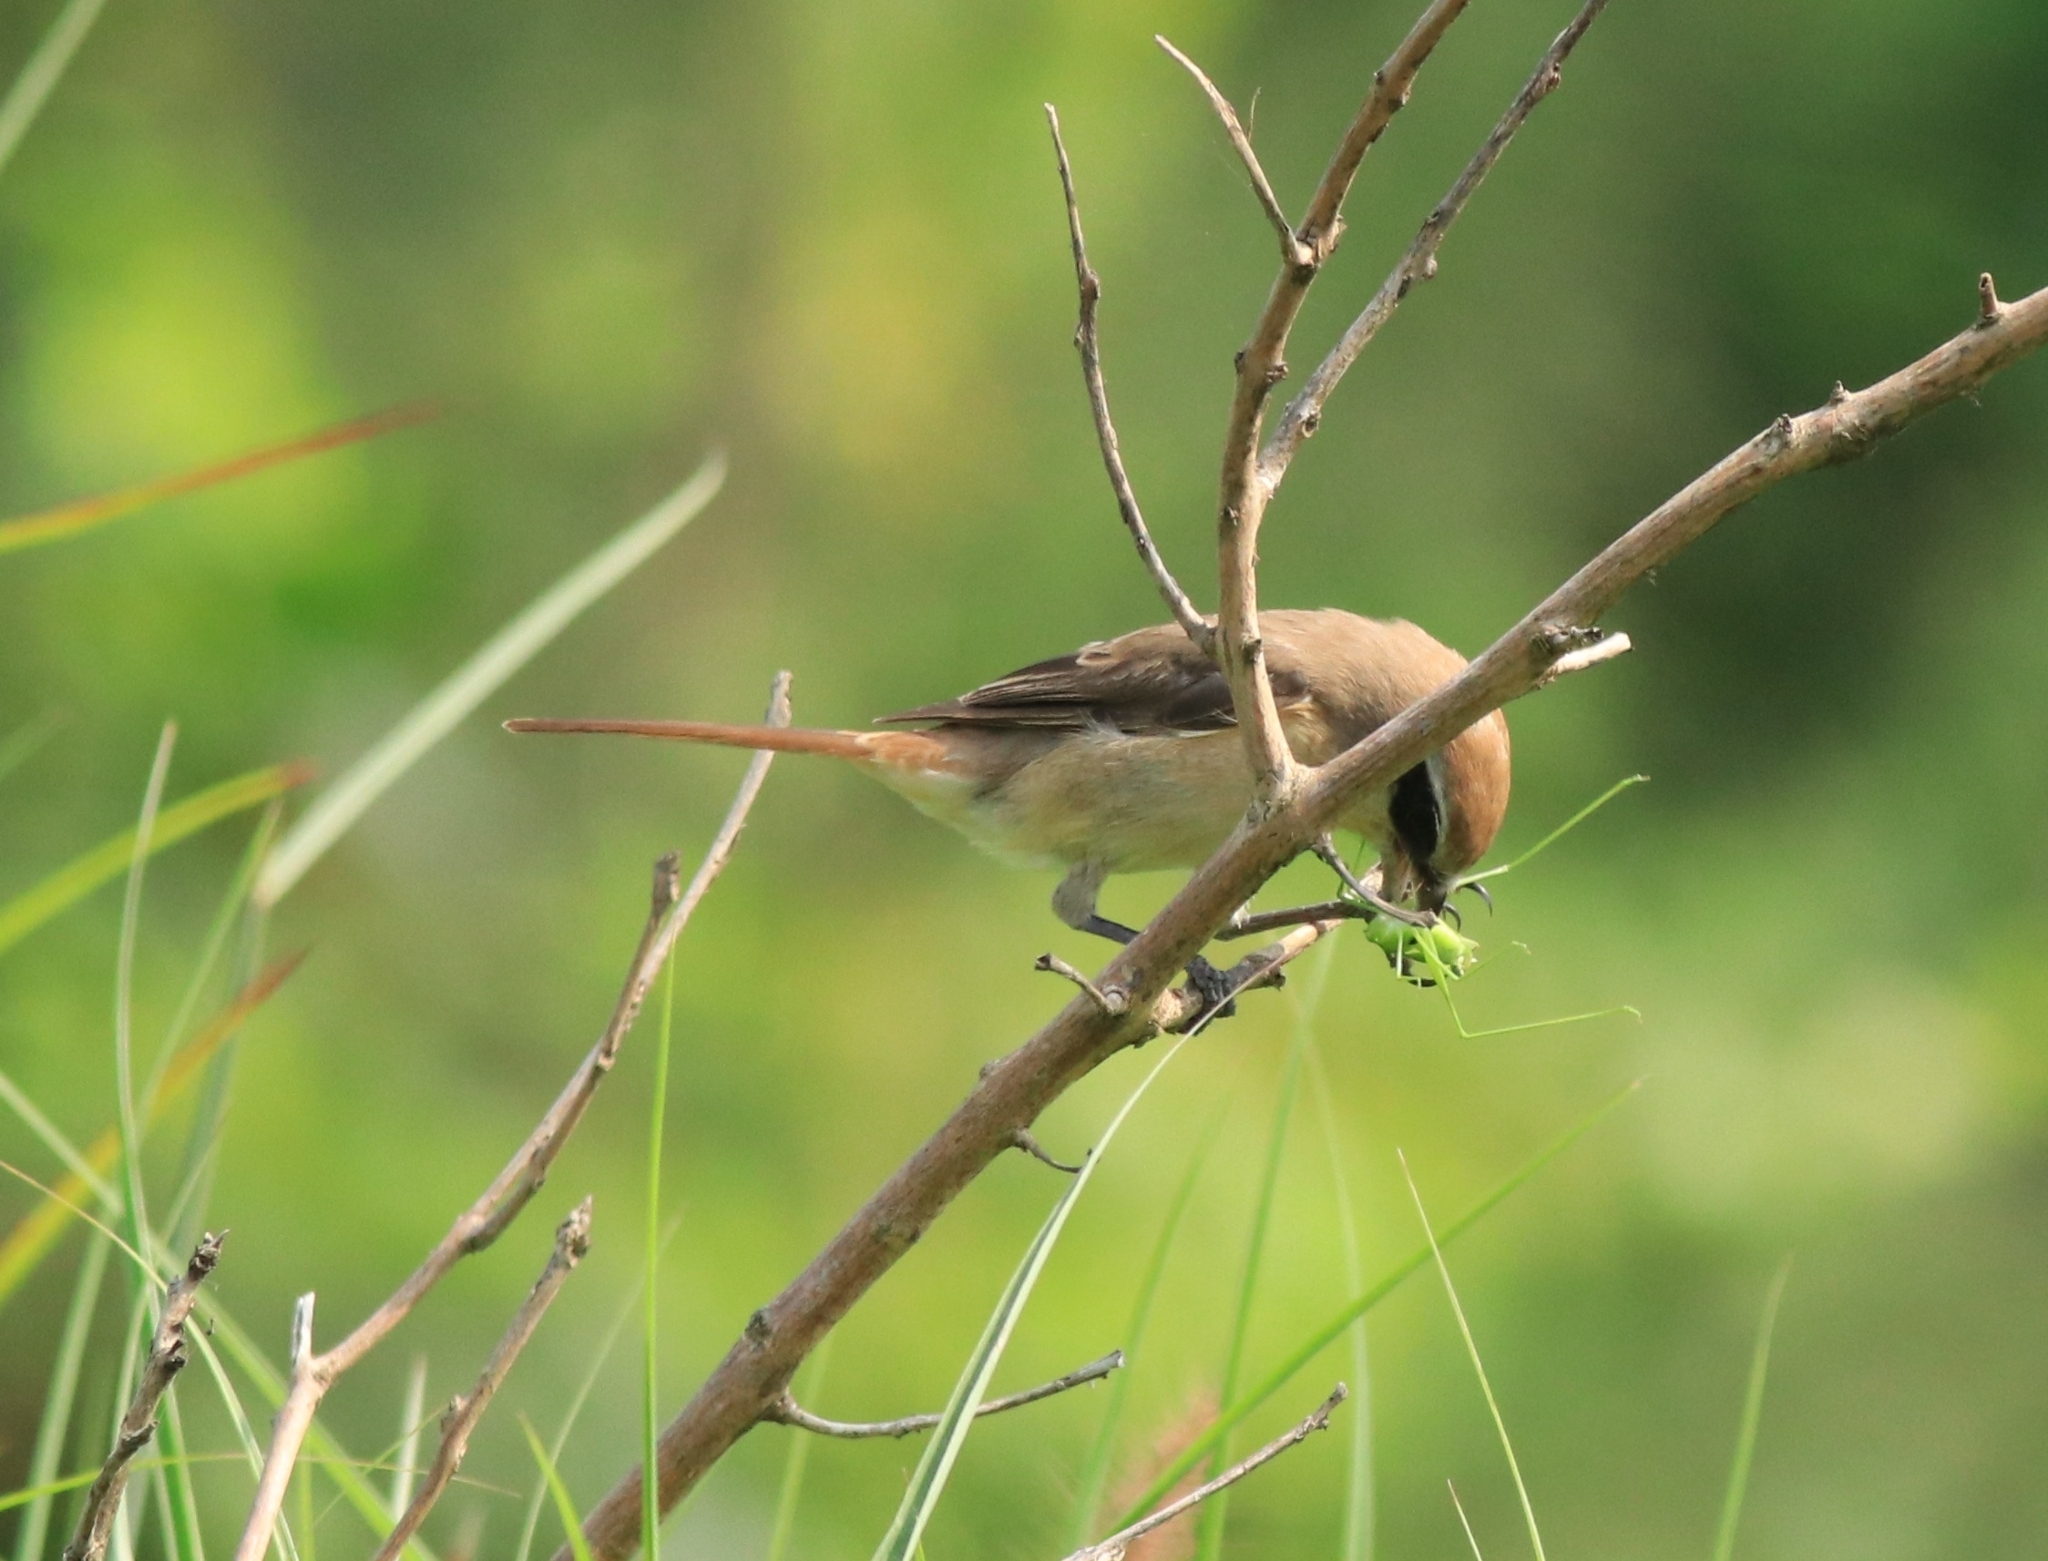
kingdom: Animalia
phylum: Chordata
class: Aves
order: Passeriformes
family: Laniidae
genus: Lanius
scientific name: Lanius cristatus
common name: Brown shrike
